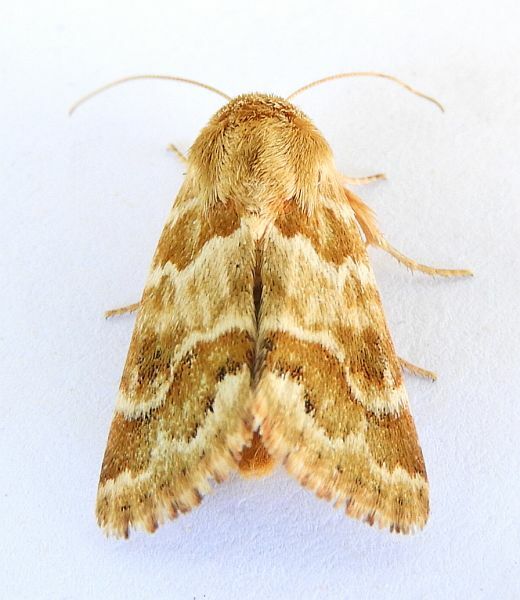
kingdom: Animalia
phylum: Arthropoda
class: Insecta
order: Lepidoptera
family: Noctuidae
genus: Schinia
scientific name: Schinia errans
